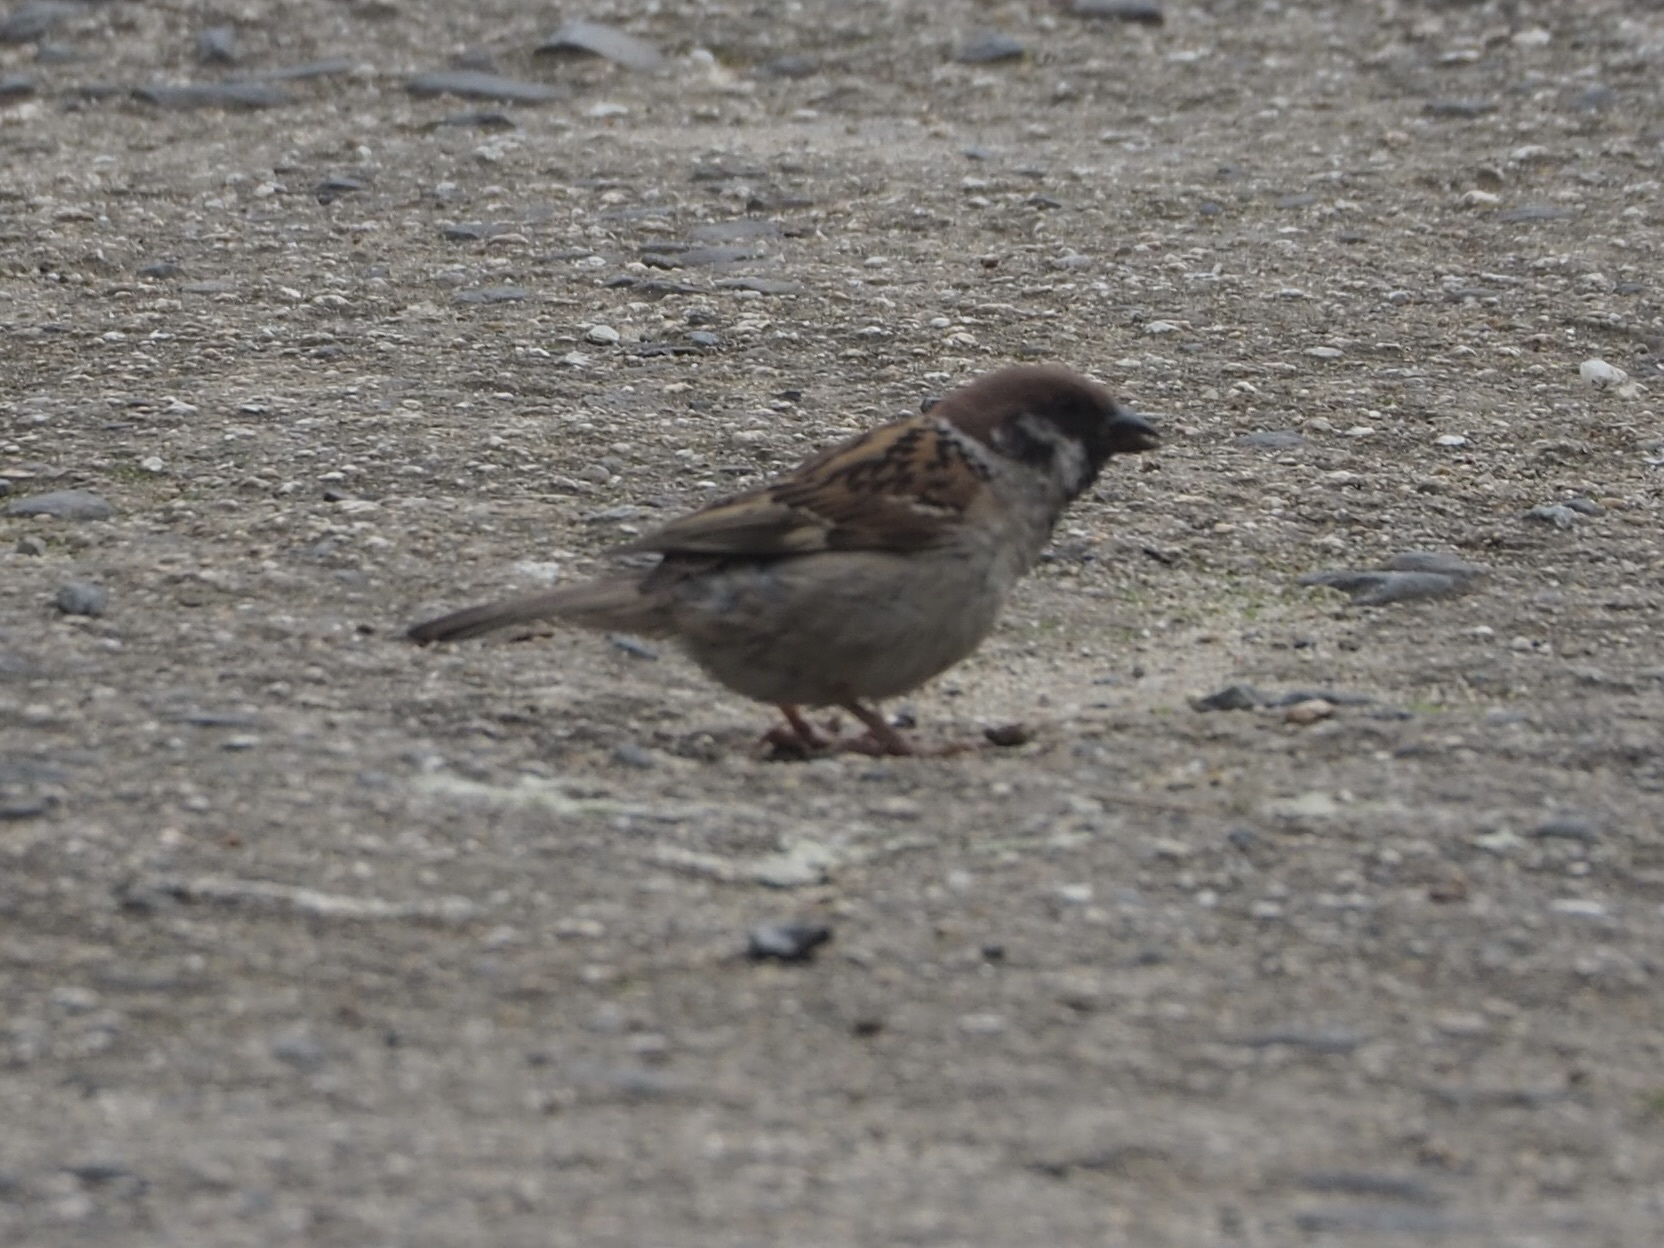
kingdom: Animalia
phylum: Chordata
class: Aves
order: Passeriformes
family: Passeridae
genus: Passer
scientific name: Passer montanus
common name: Eurasian tree sparrow
